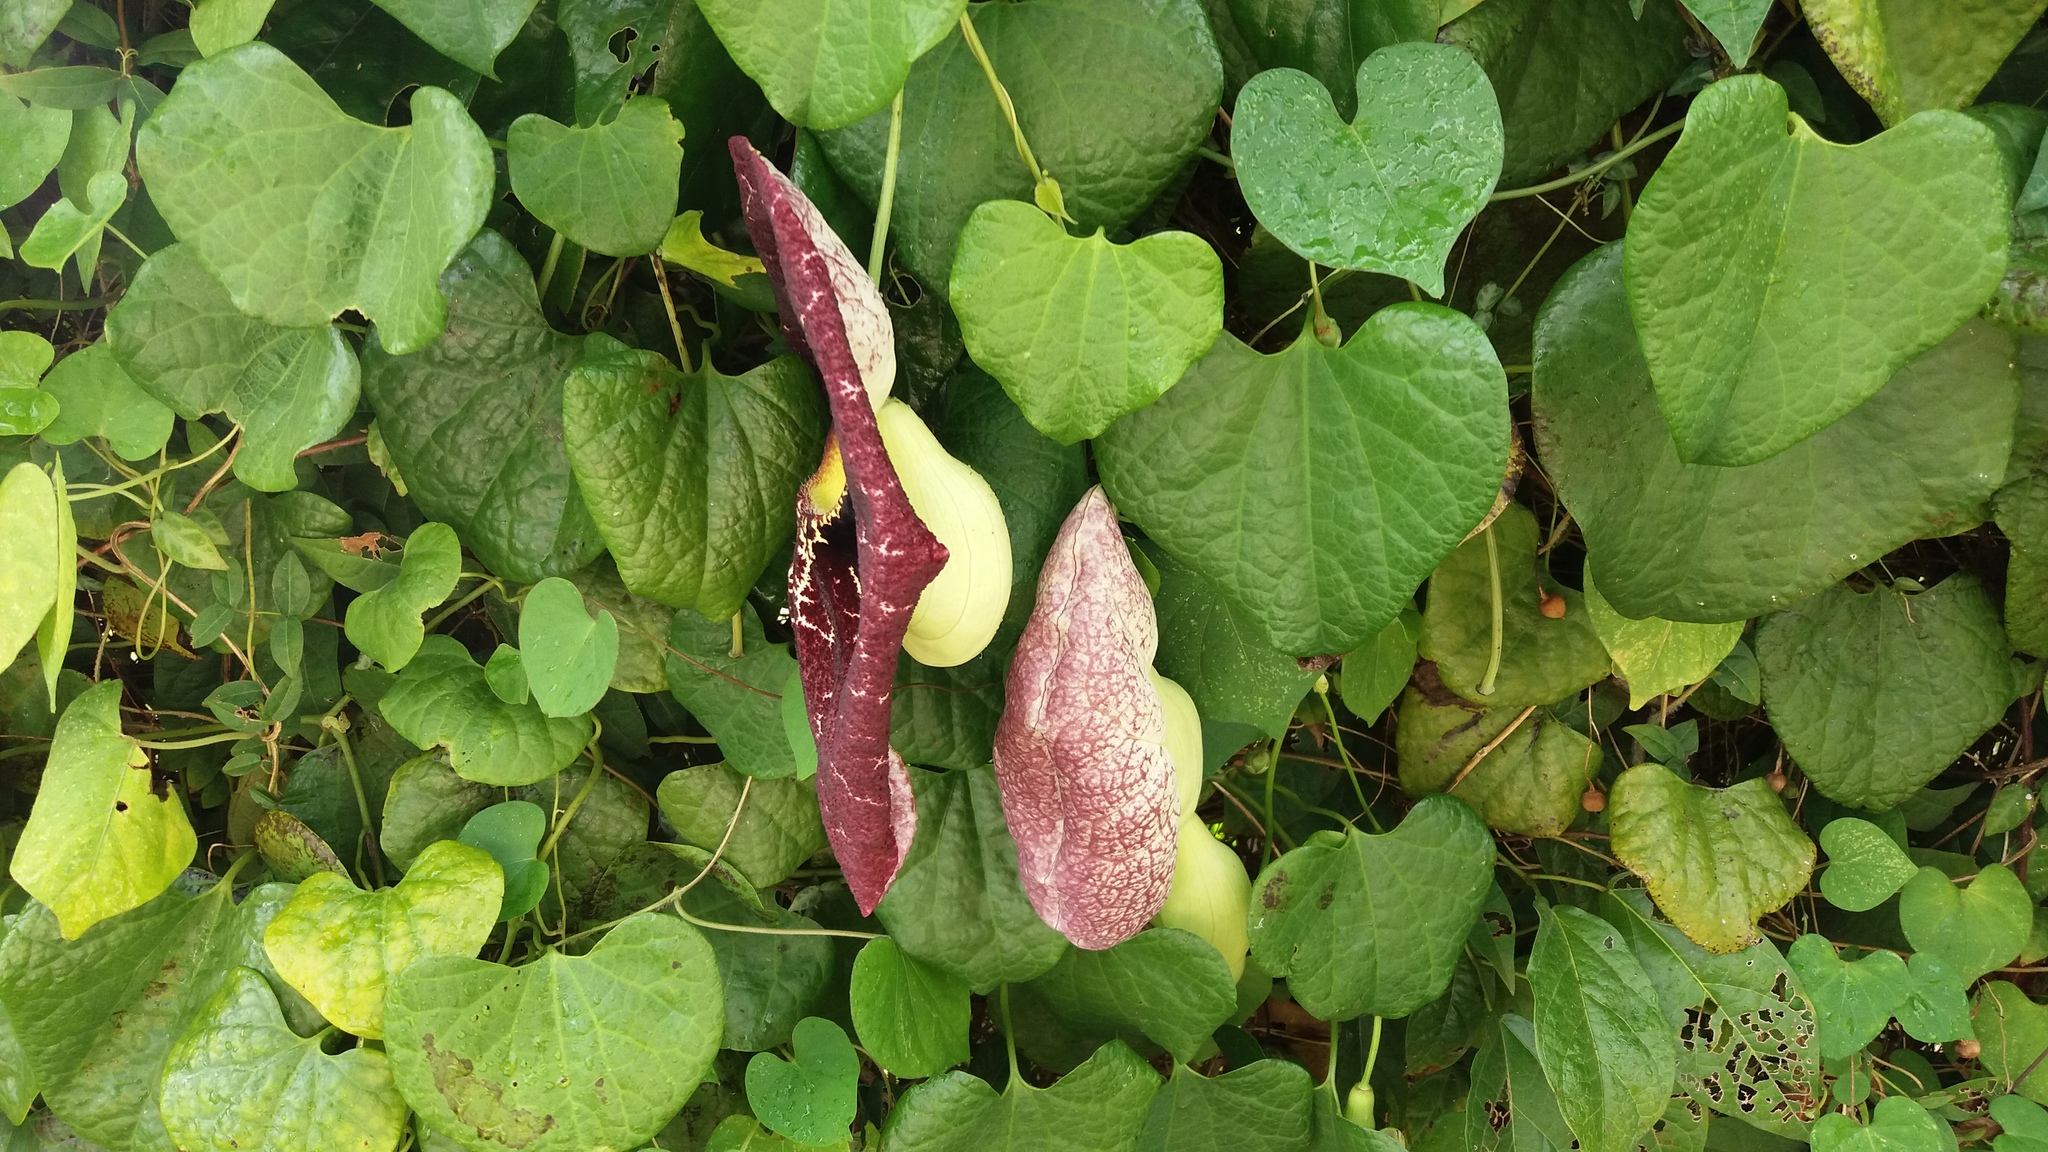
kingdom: Plantae
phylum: Tracheophyta
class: Magnoliopsida
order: Piperales
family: Aristolochiaceae
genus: Aristolochia
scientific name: Aristolochia littoralis
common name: Duck
